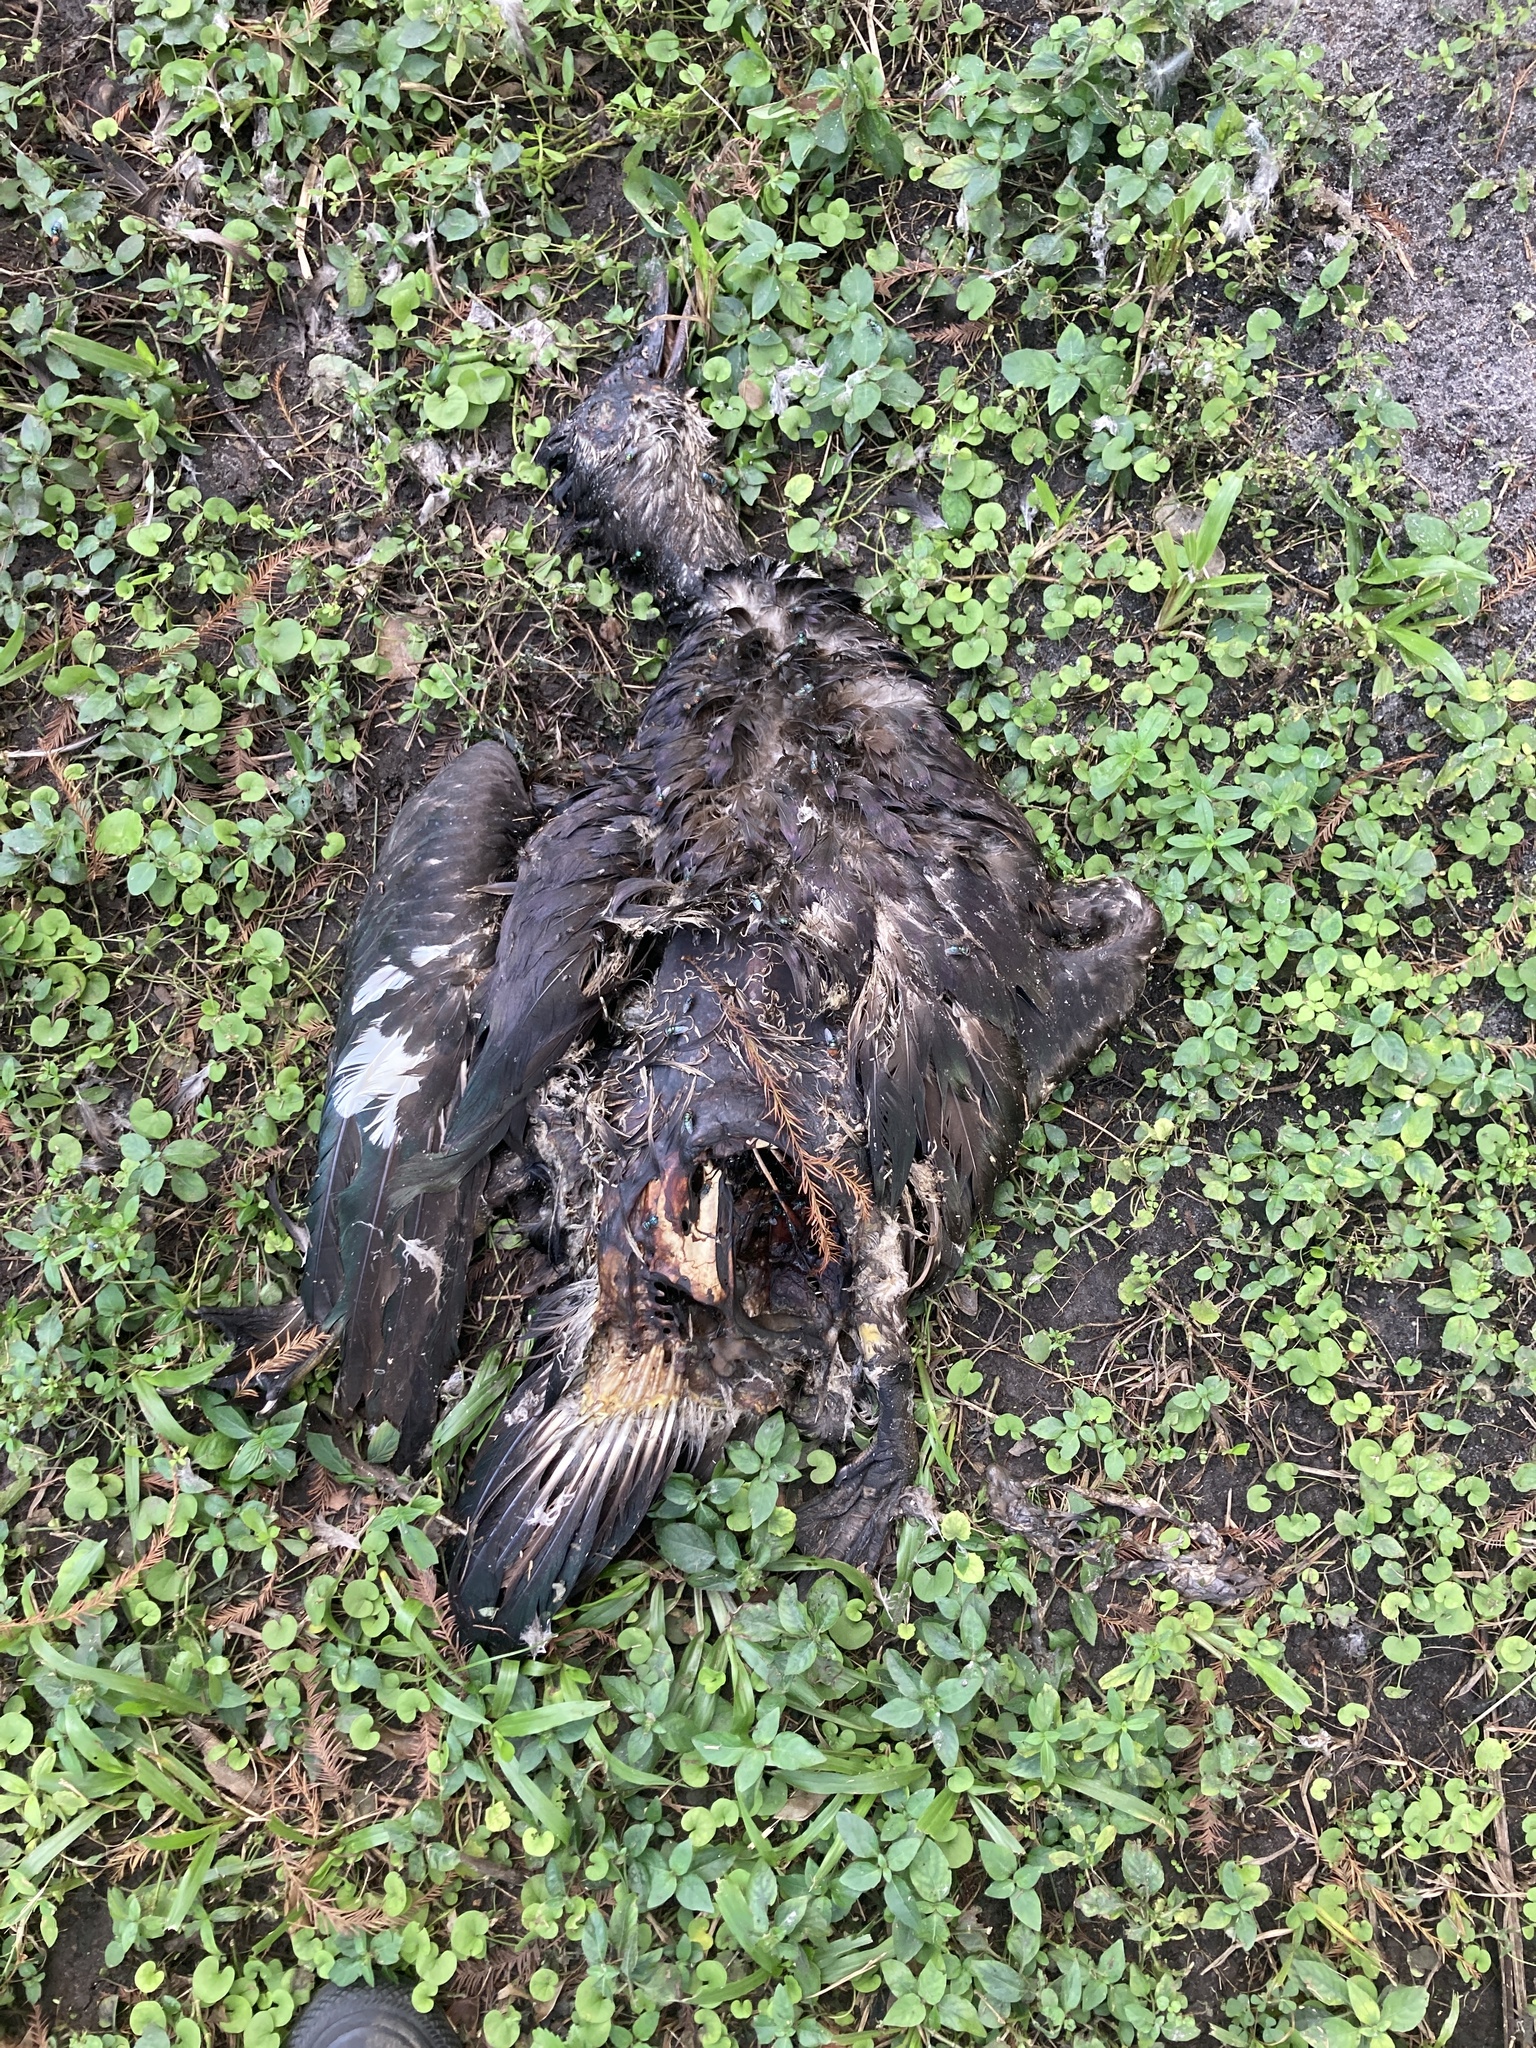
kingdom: Animalia
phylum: Chordata
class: Aves
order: Anseriformes
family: Anatidae
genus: Cairina
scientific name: Cairina moschata
